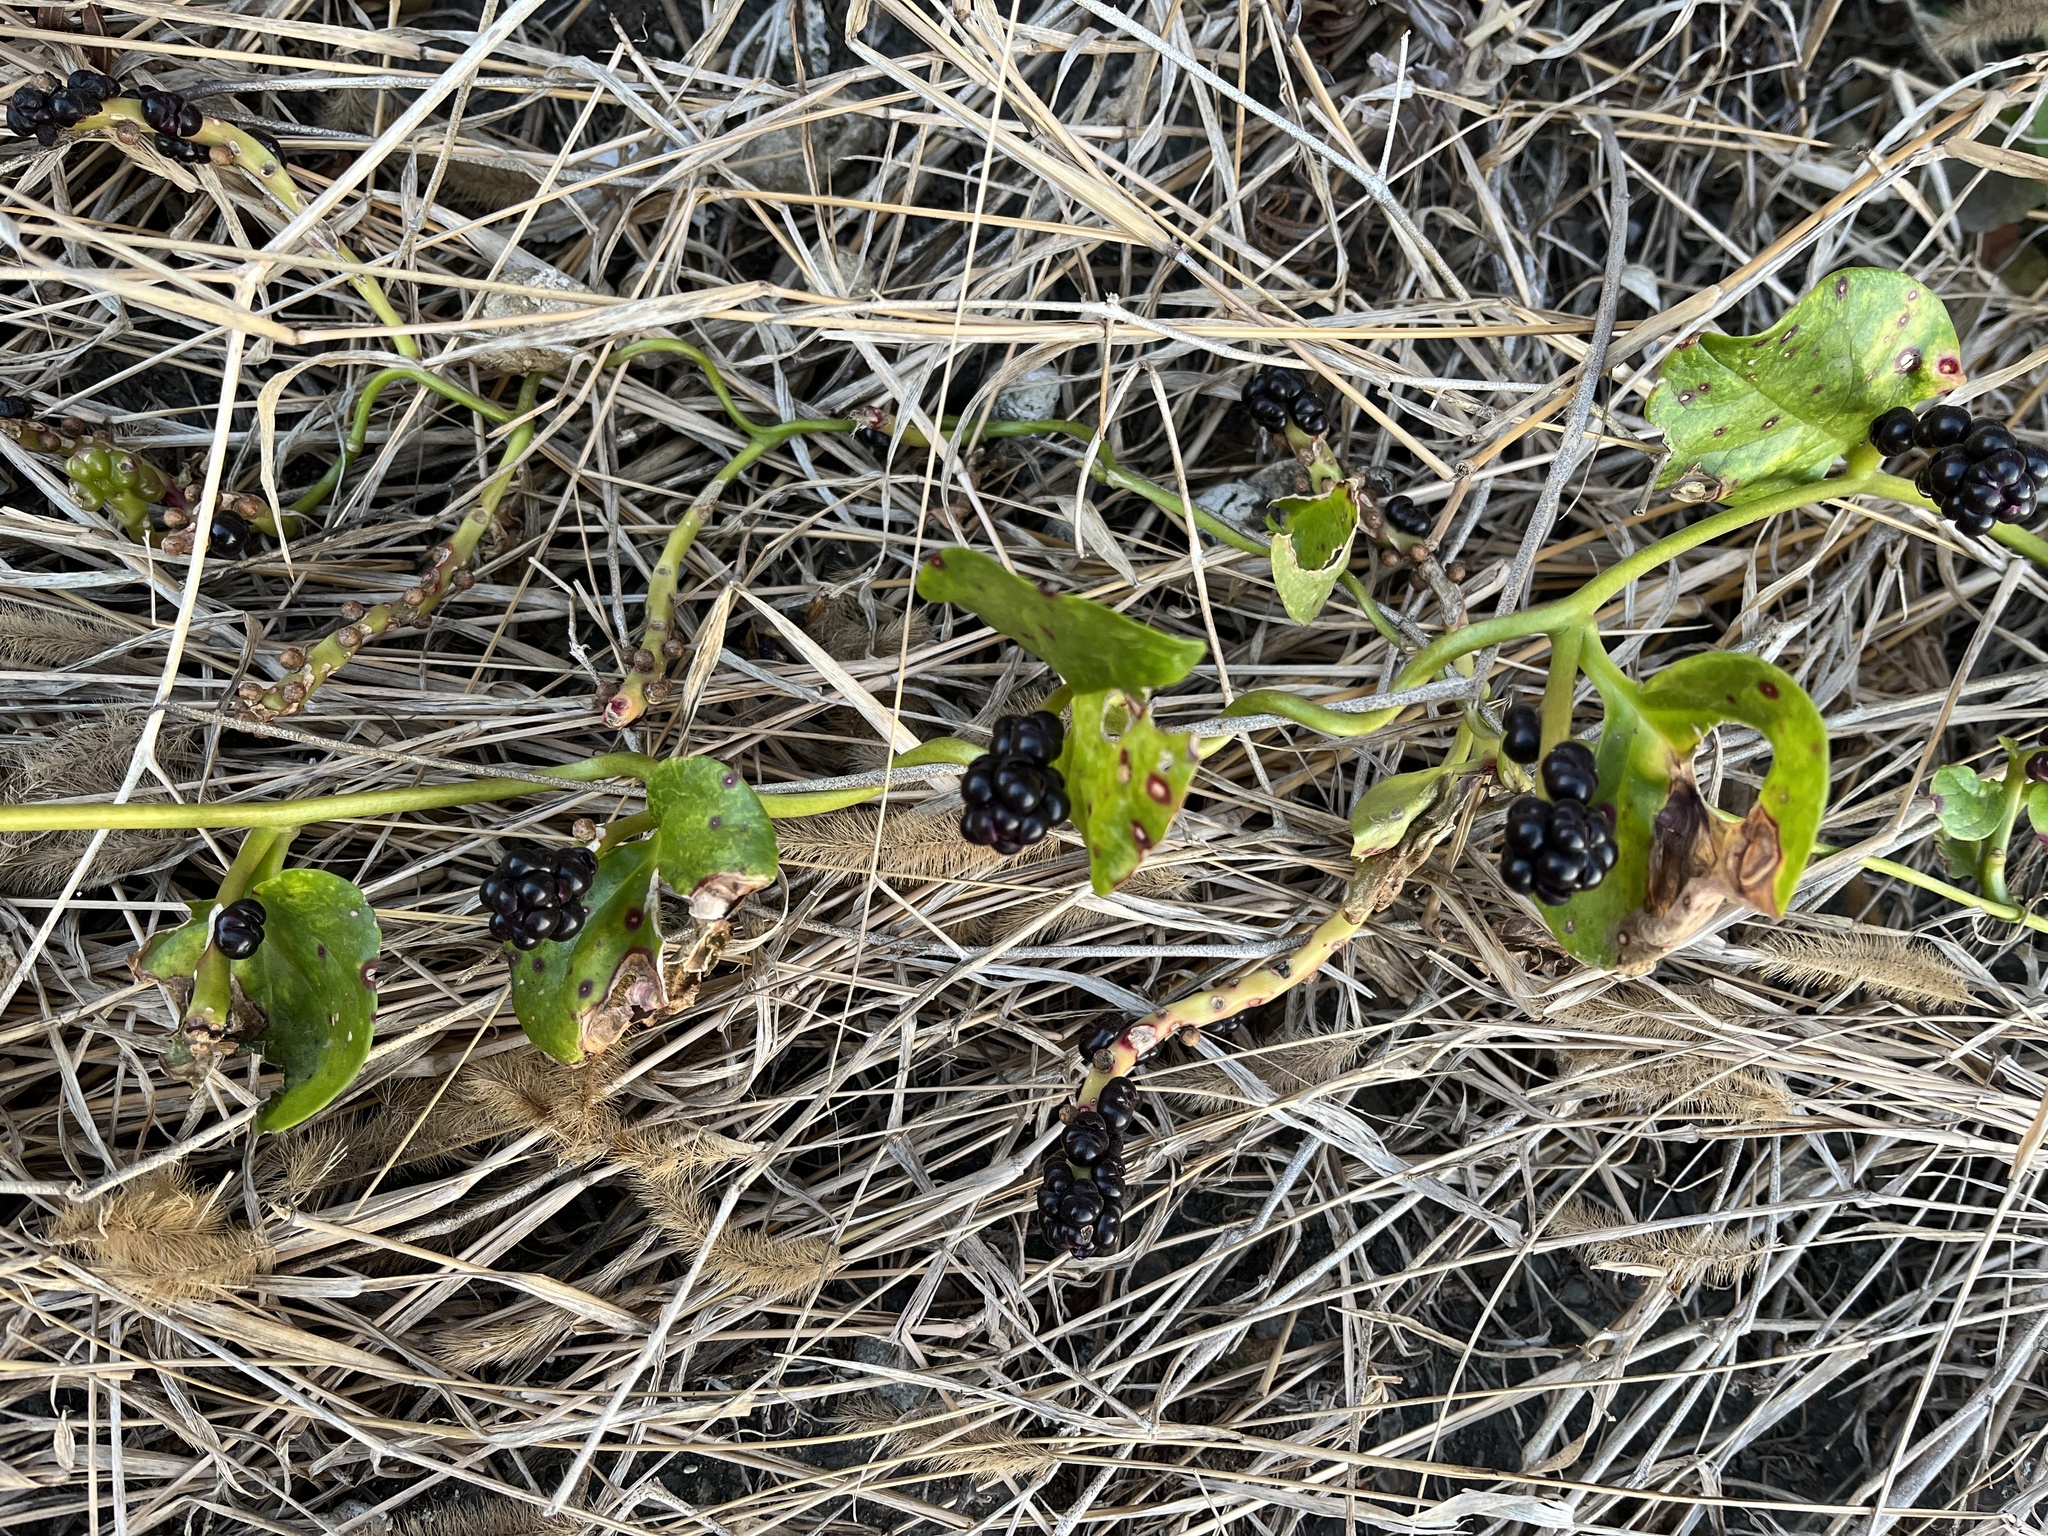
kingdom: Plantae
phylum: Tracheophyta
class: Magnoliopsida
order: Caryophyllales
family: Basellaceae
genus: Basella
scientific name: Basella alba
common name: Indian spinach
